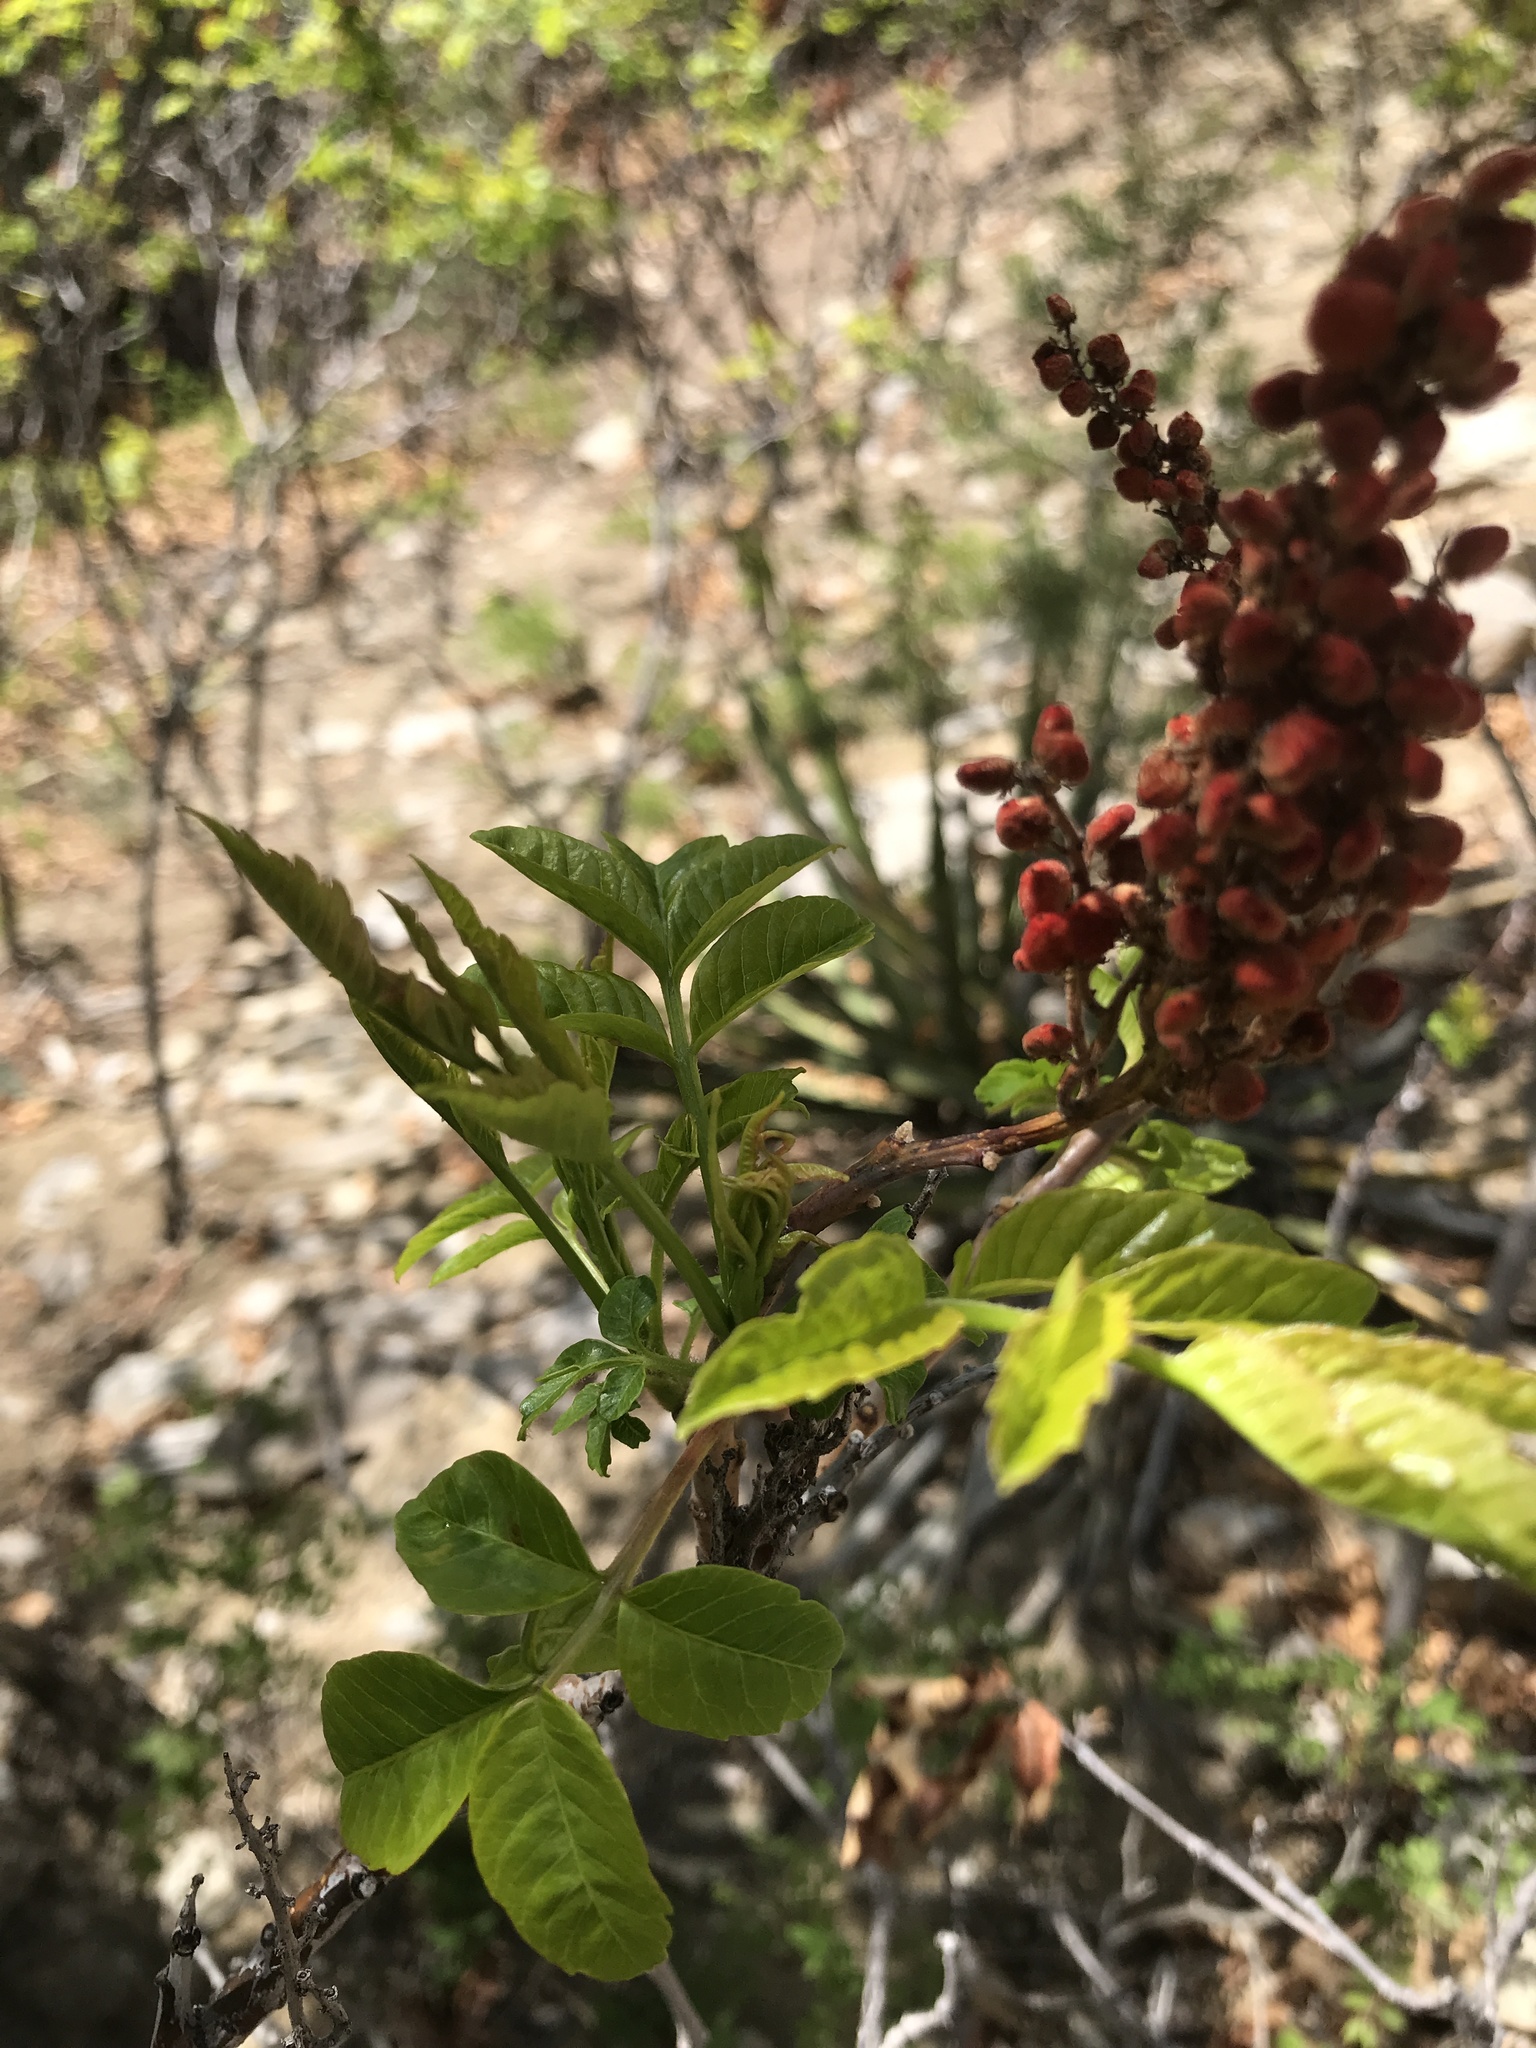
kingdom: Plantae
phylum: Tracheophyta
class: Magnoliopsida
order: Sapindales
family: Anacardiaceae
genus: Rhus
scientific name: Rhus glabra
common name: Scarlet sumac
